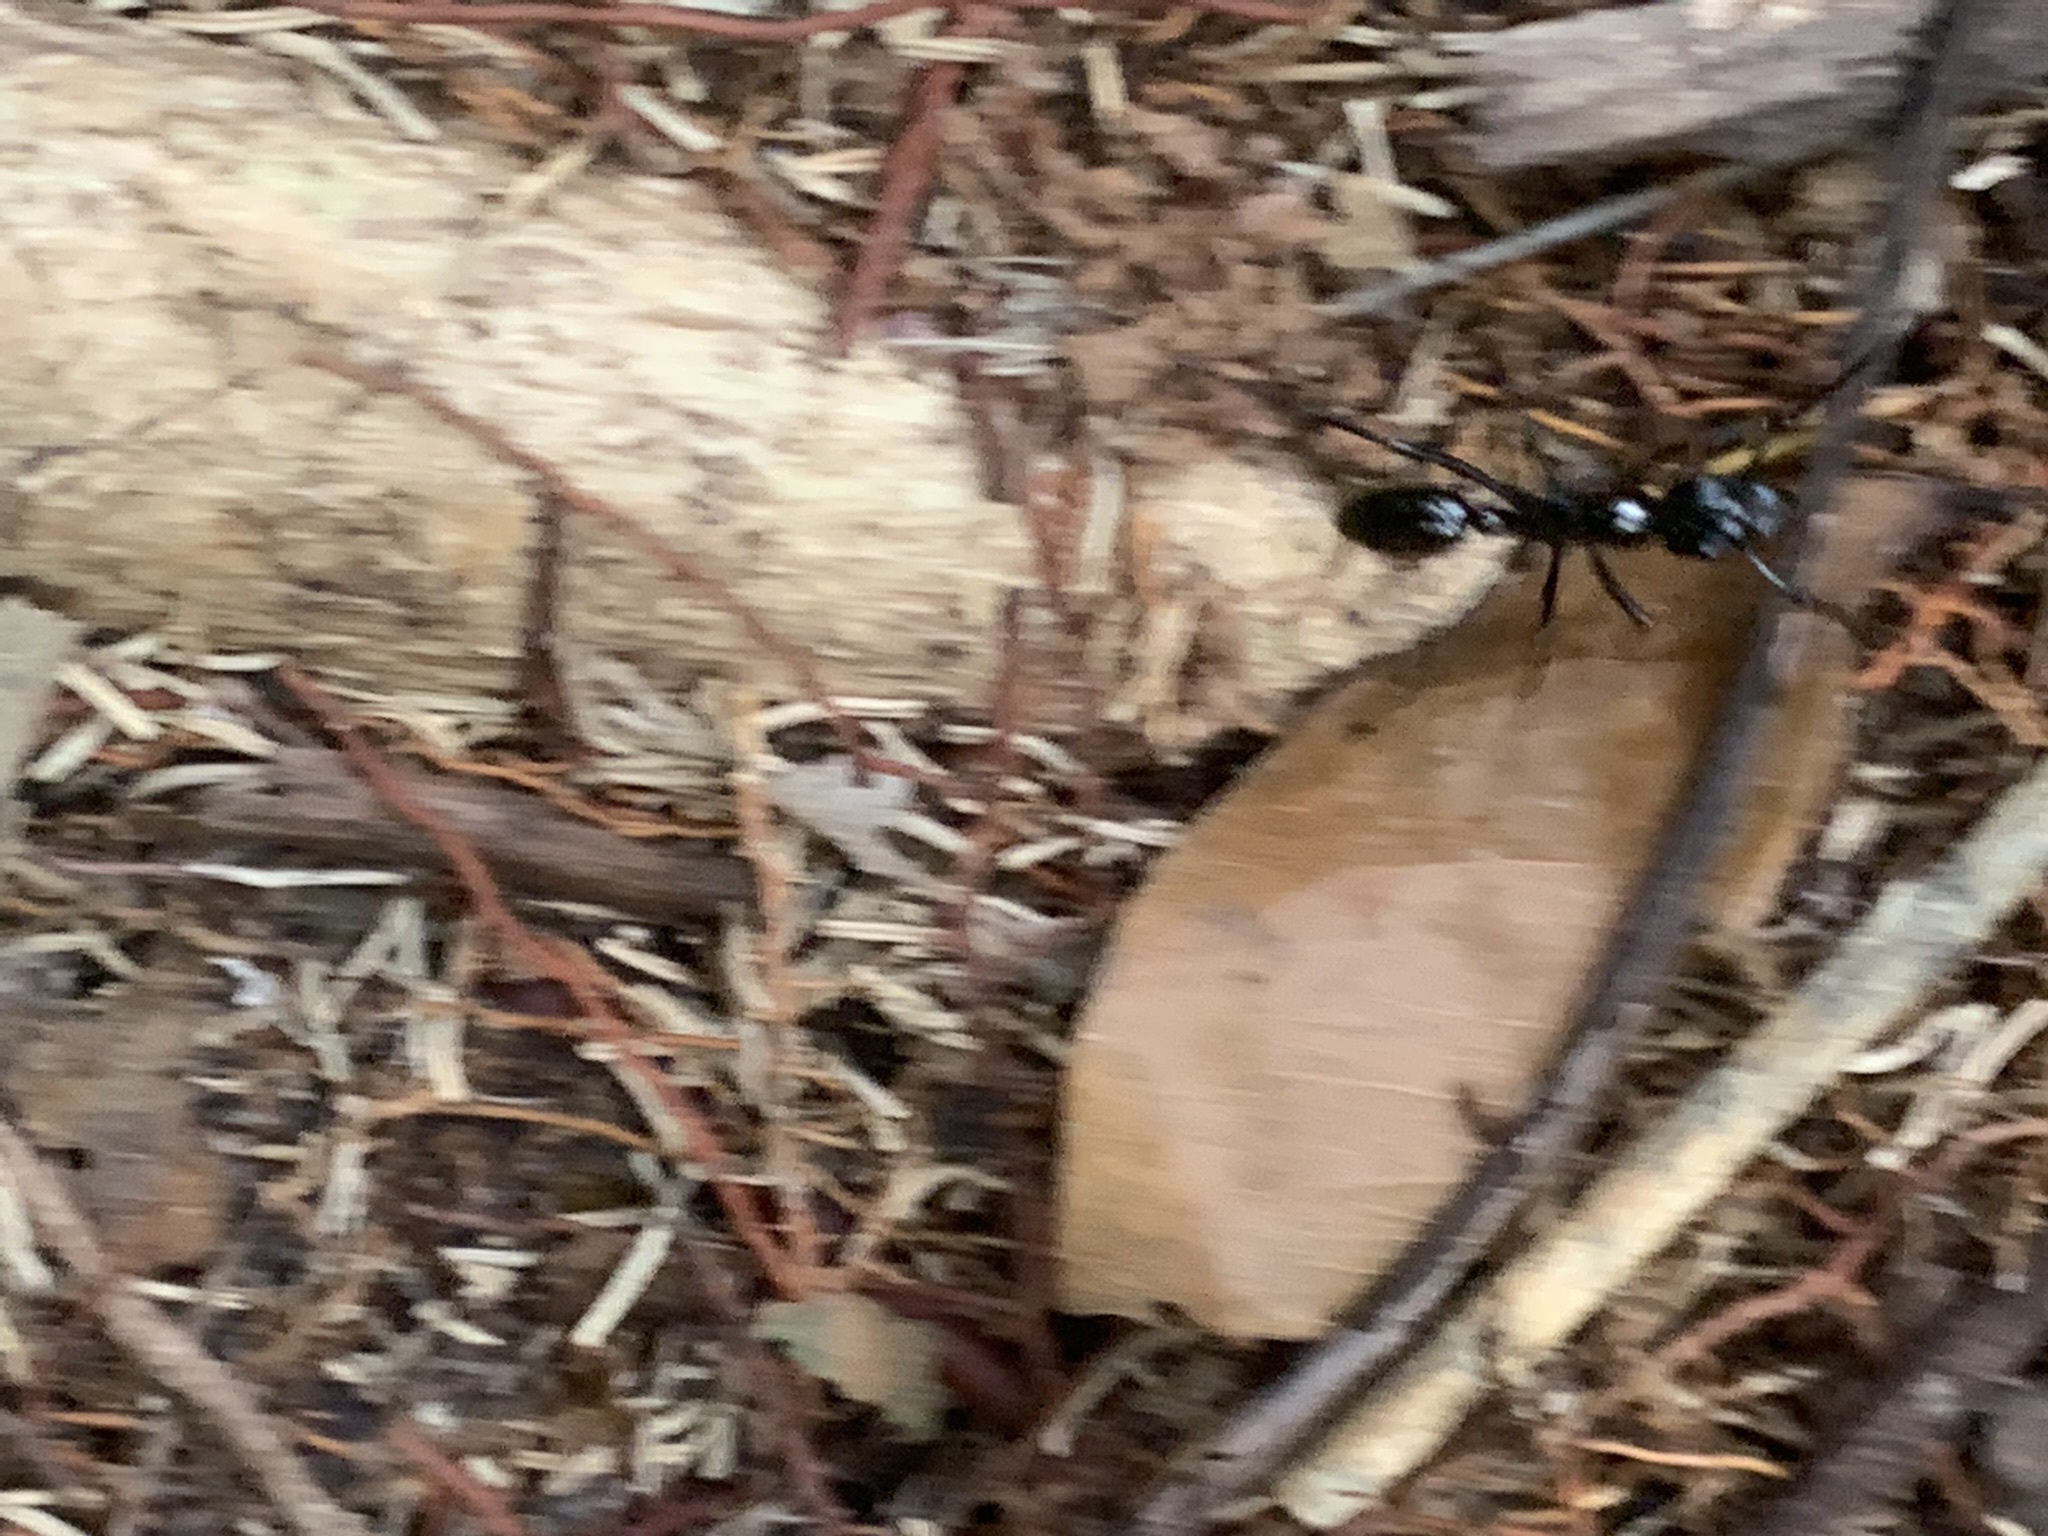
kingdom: Animalia
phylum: Arthropoda
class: Insecta
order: Hymenoptera
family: Formicidae
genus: Pachycondyla
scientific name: Pachycondyla commutata
